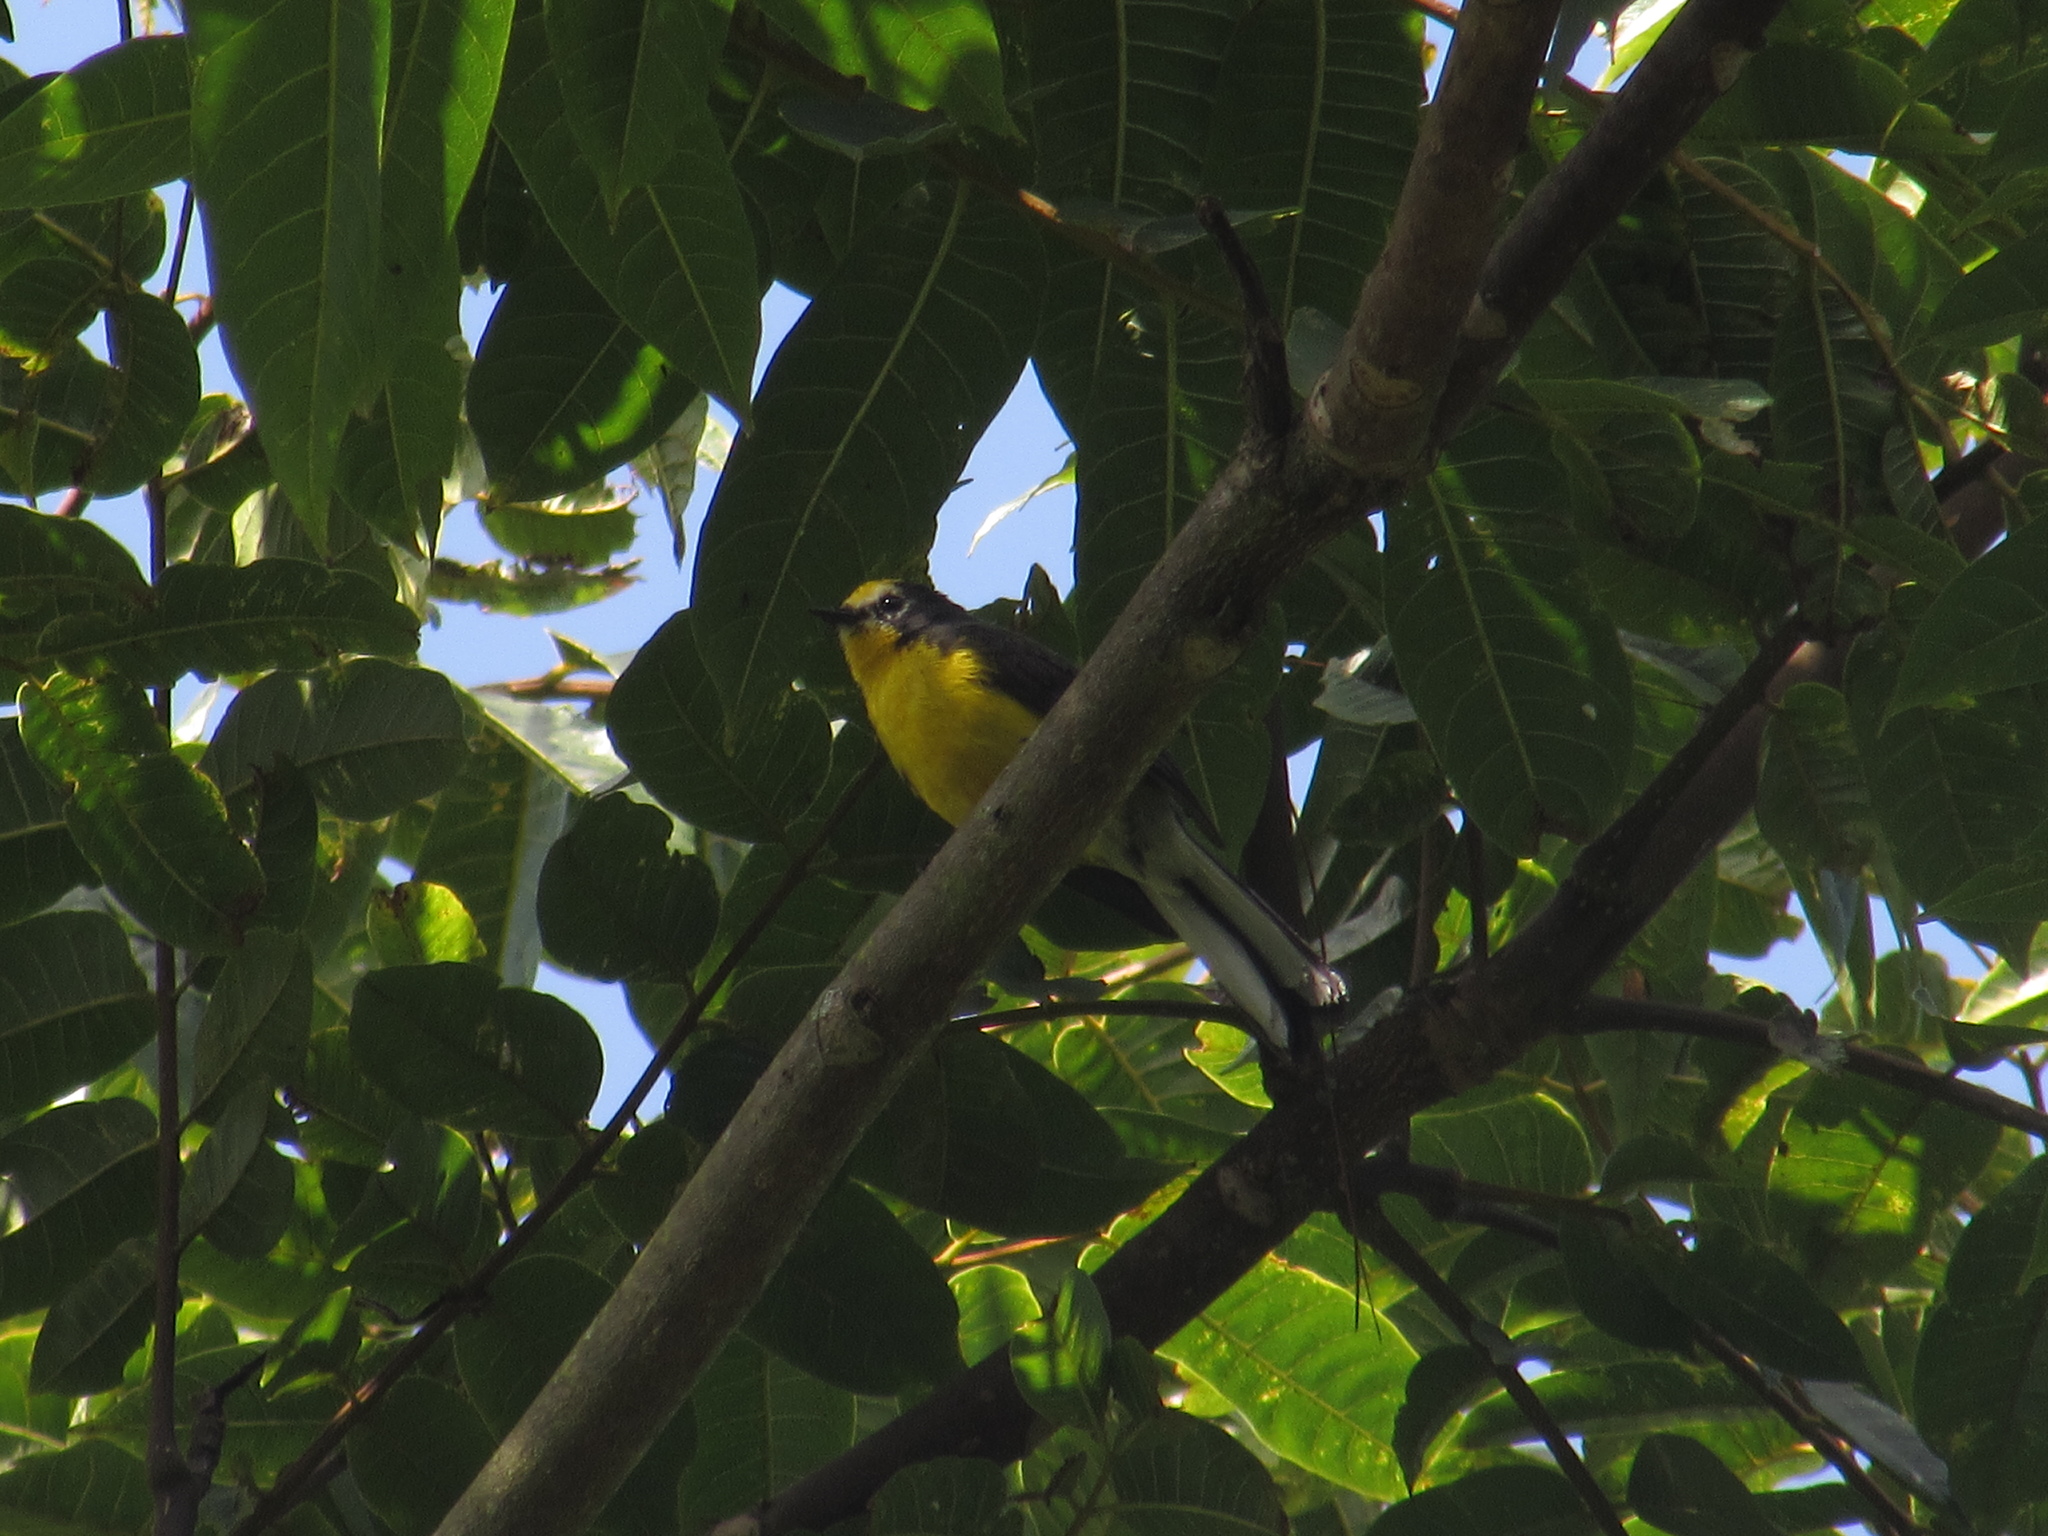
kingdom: Animalia
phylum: Chordata
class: Aves
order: Passeriformes
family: Parulidae
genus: Myioborus
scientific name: Myioborus ornatus
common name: Golden-fronted whitestart
